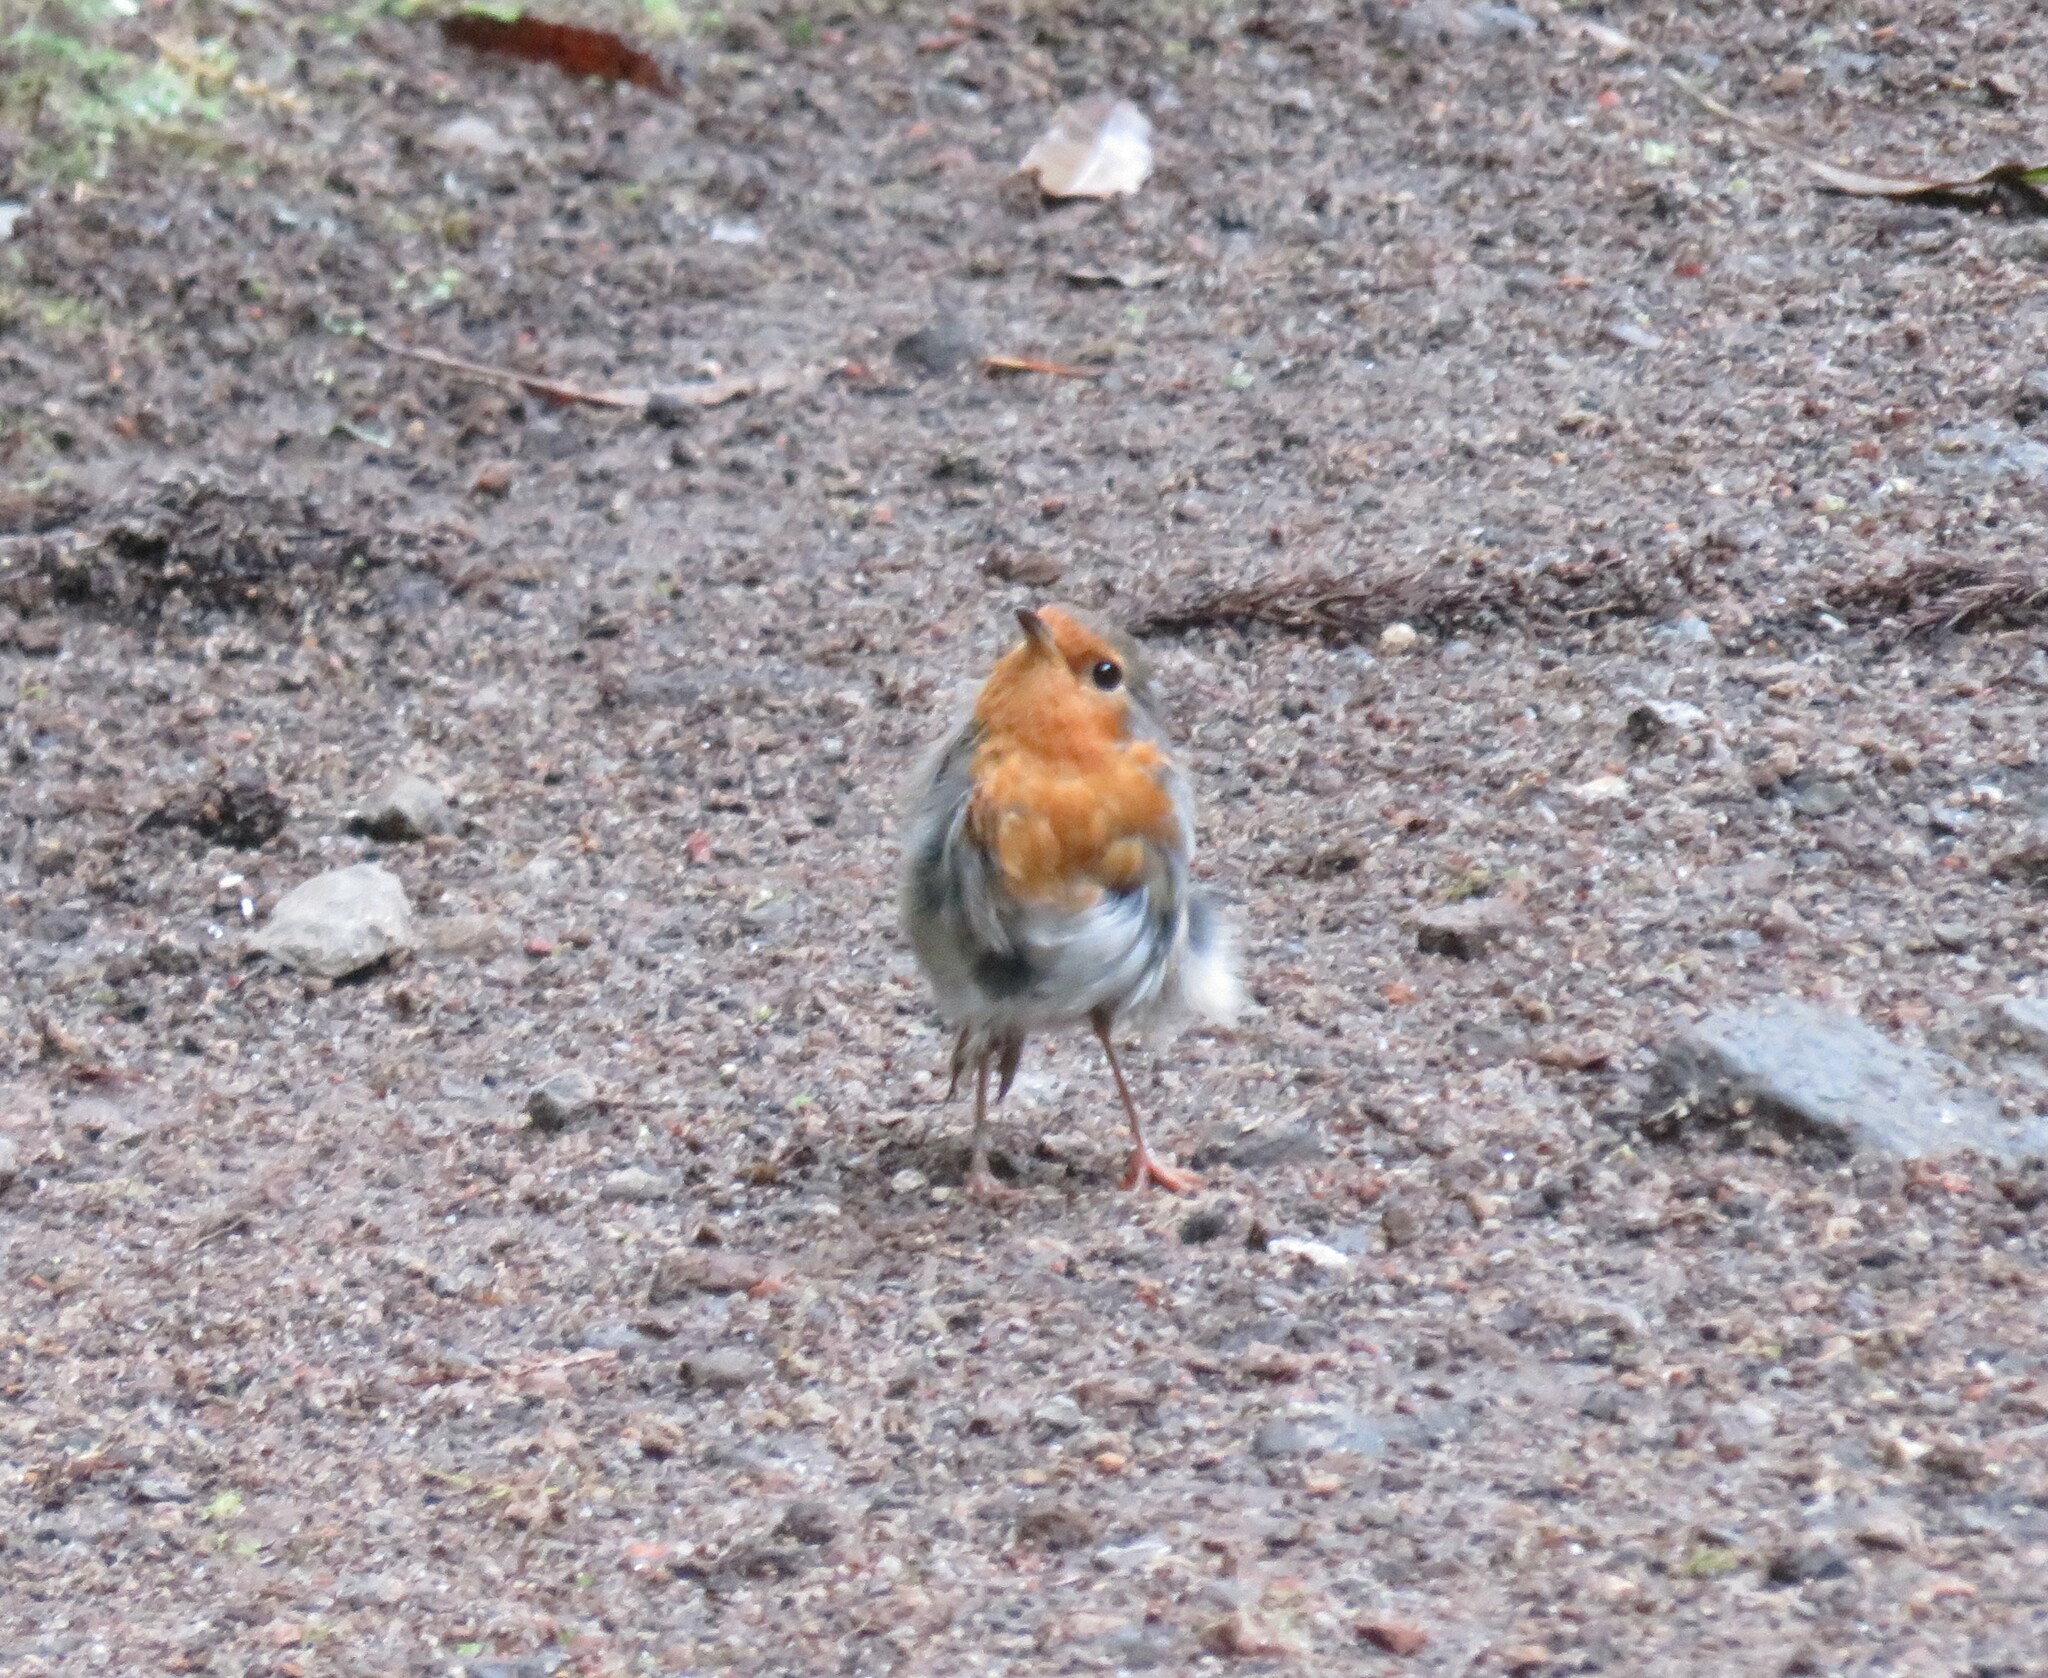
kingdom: Animalia
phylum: Chordata
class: Aves
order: Passeriformes
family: Muscicapidae
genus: Erithacus
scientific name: Erithacus rubecula
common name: European robin
